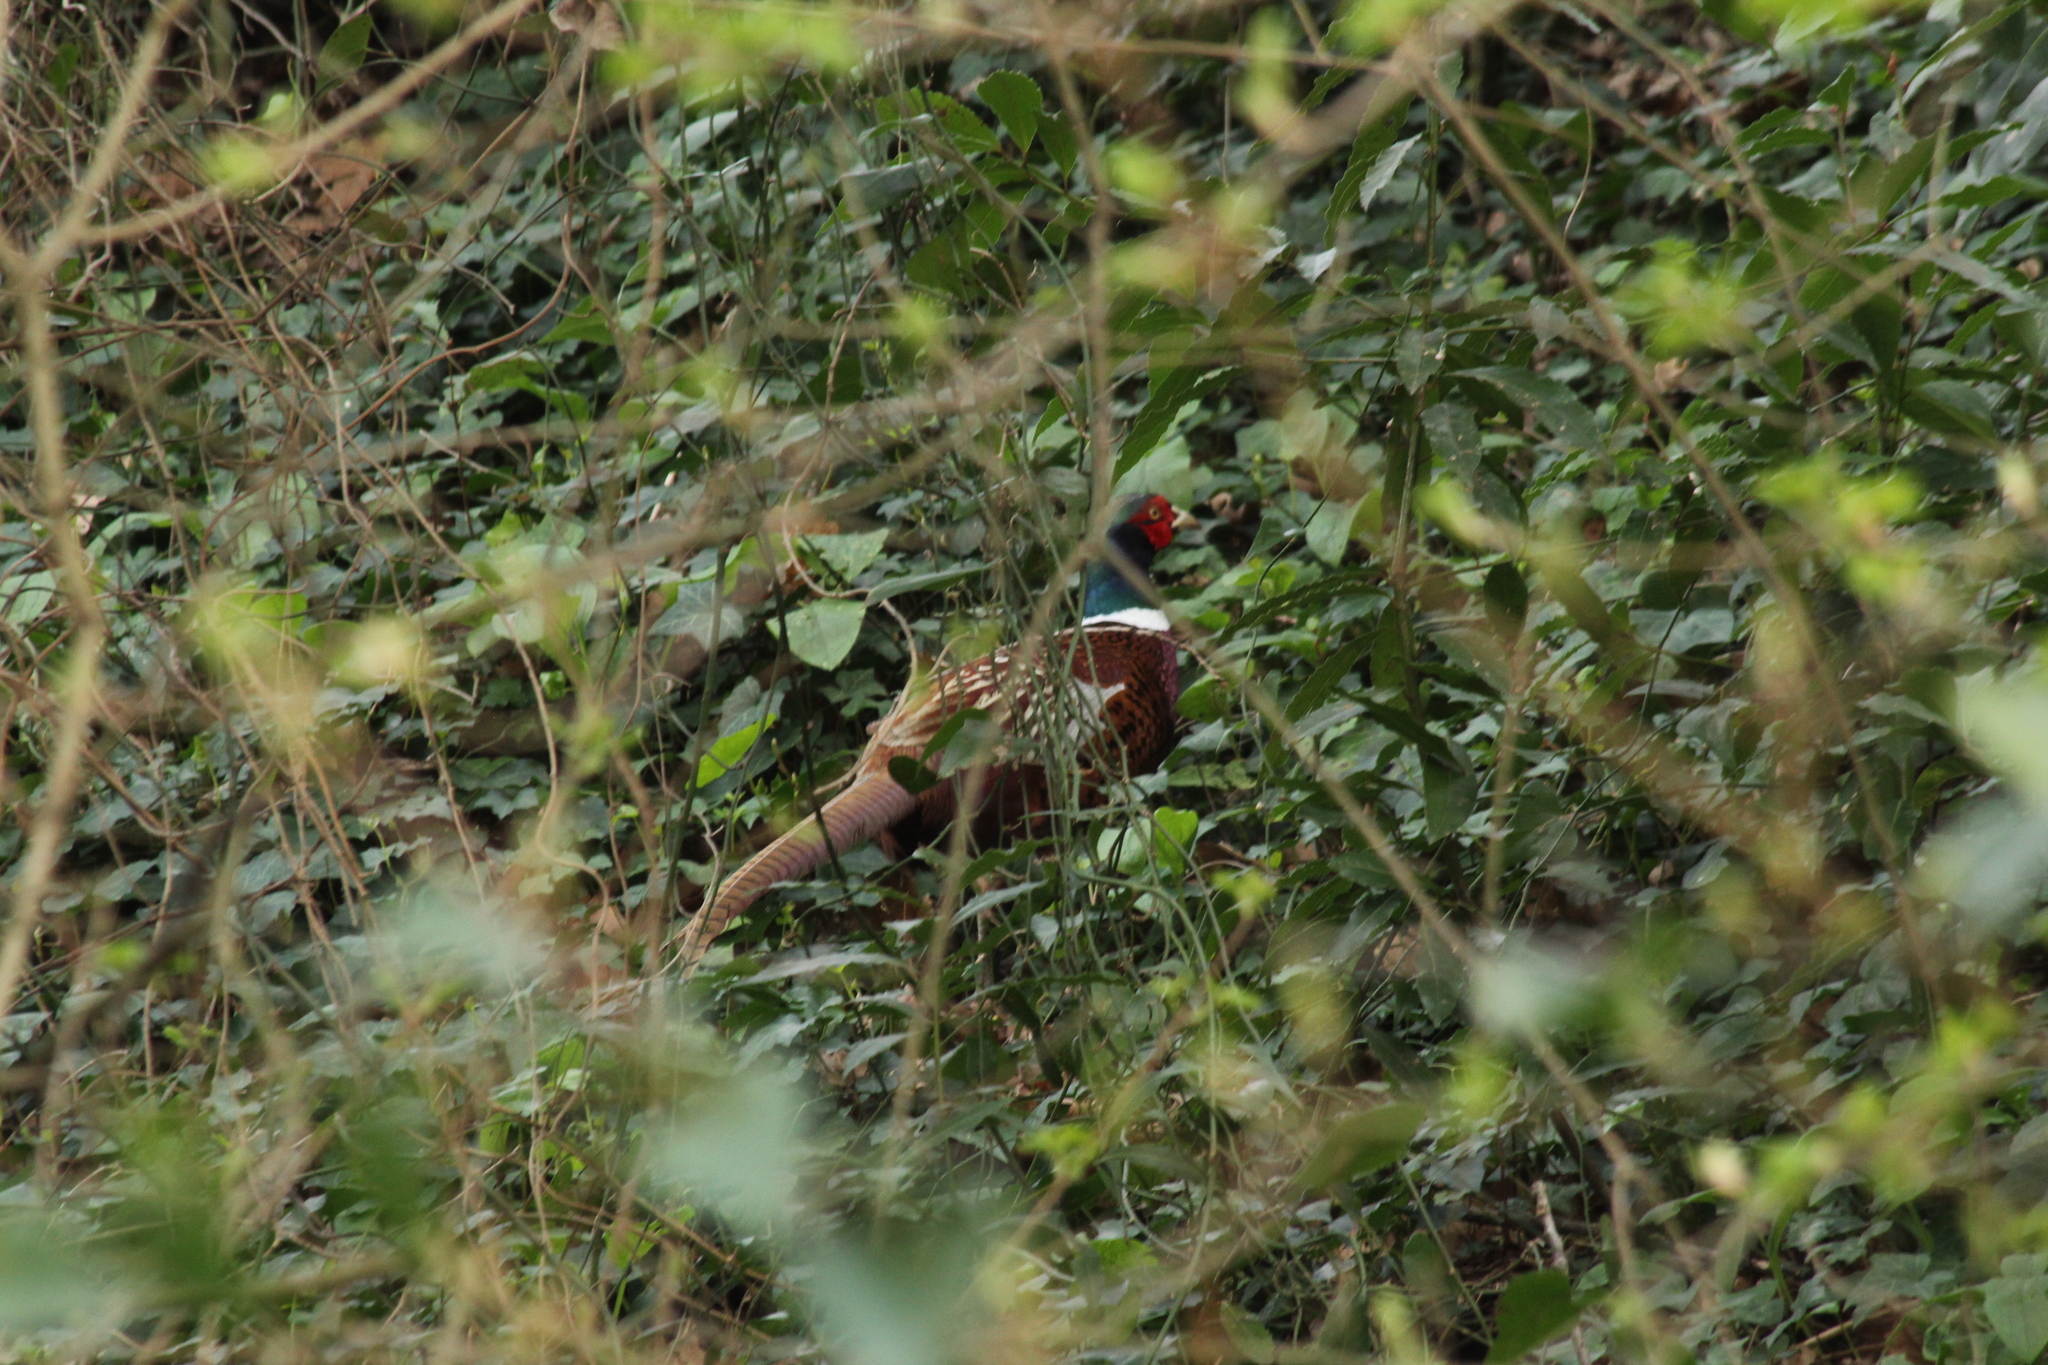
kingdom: Animalia
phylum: Chordata
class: Aves
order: Galliformes
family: Phasianidae
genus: Phasianus
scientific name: Phasianus colchicus
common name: Common pheasant
